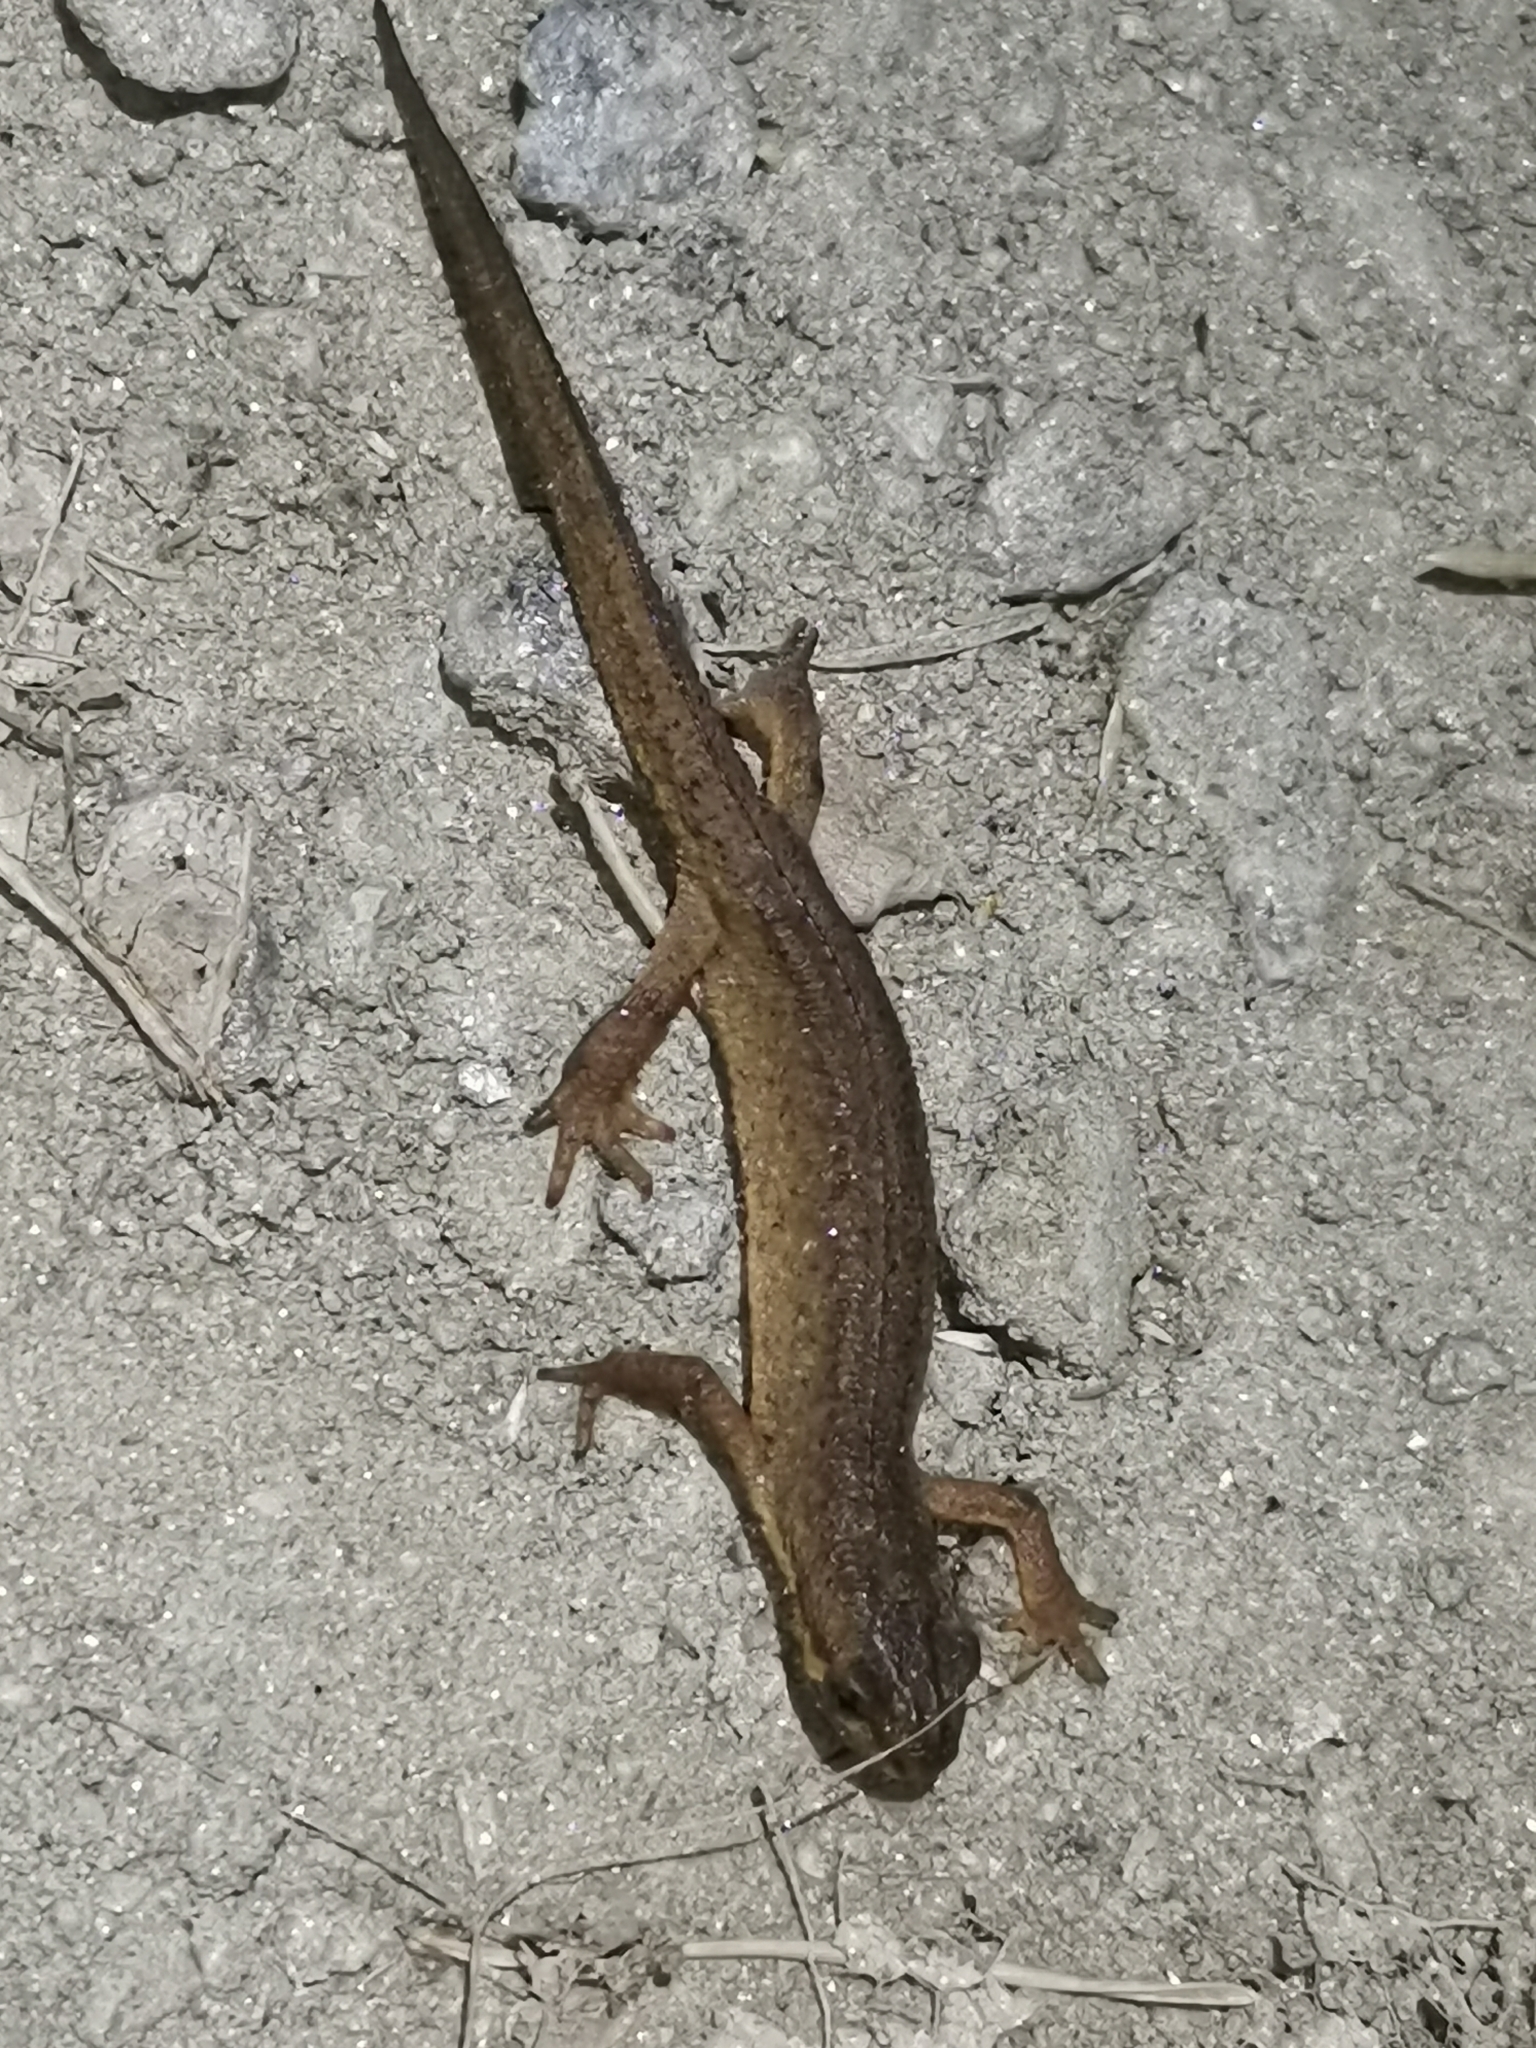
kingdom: Animalia
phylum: Chordata
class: Amphibia
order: Caudata
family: Salamandridae
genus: Lissotriton
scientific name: Lissotriton vulgaris
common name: Smooth newt
